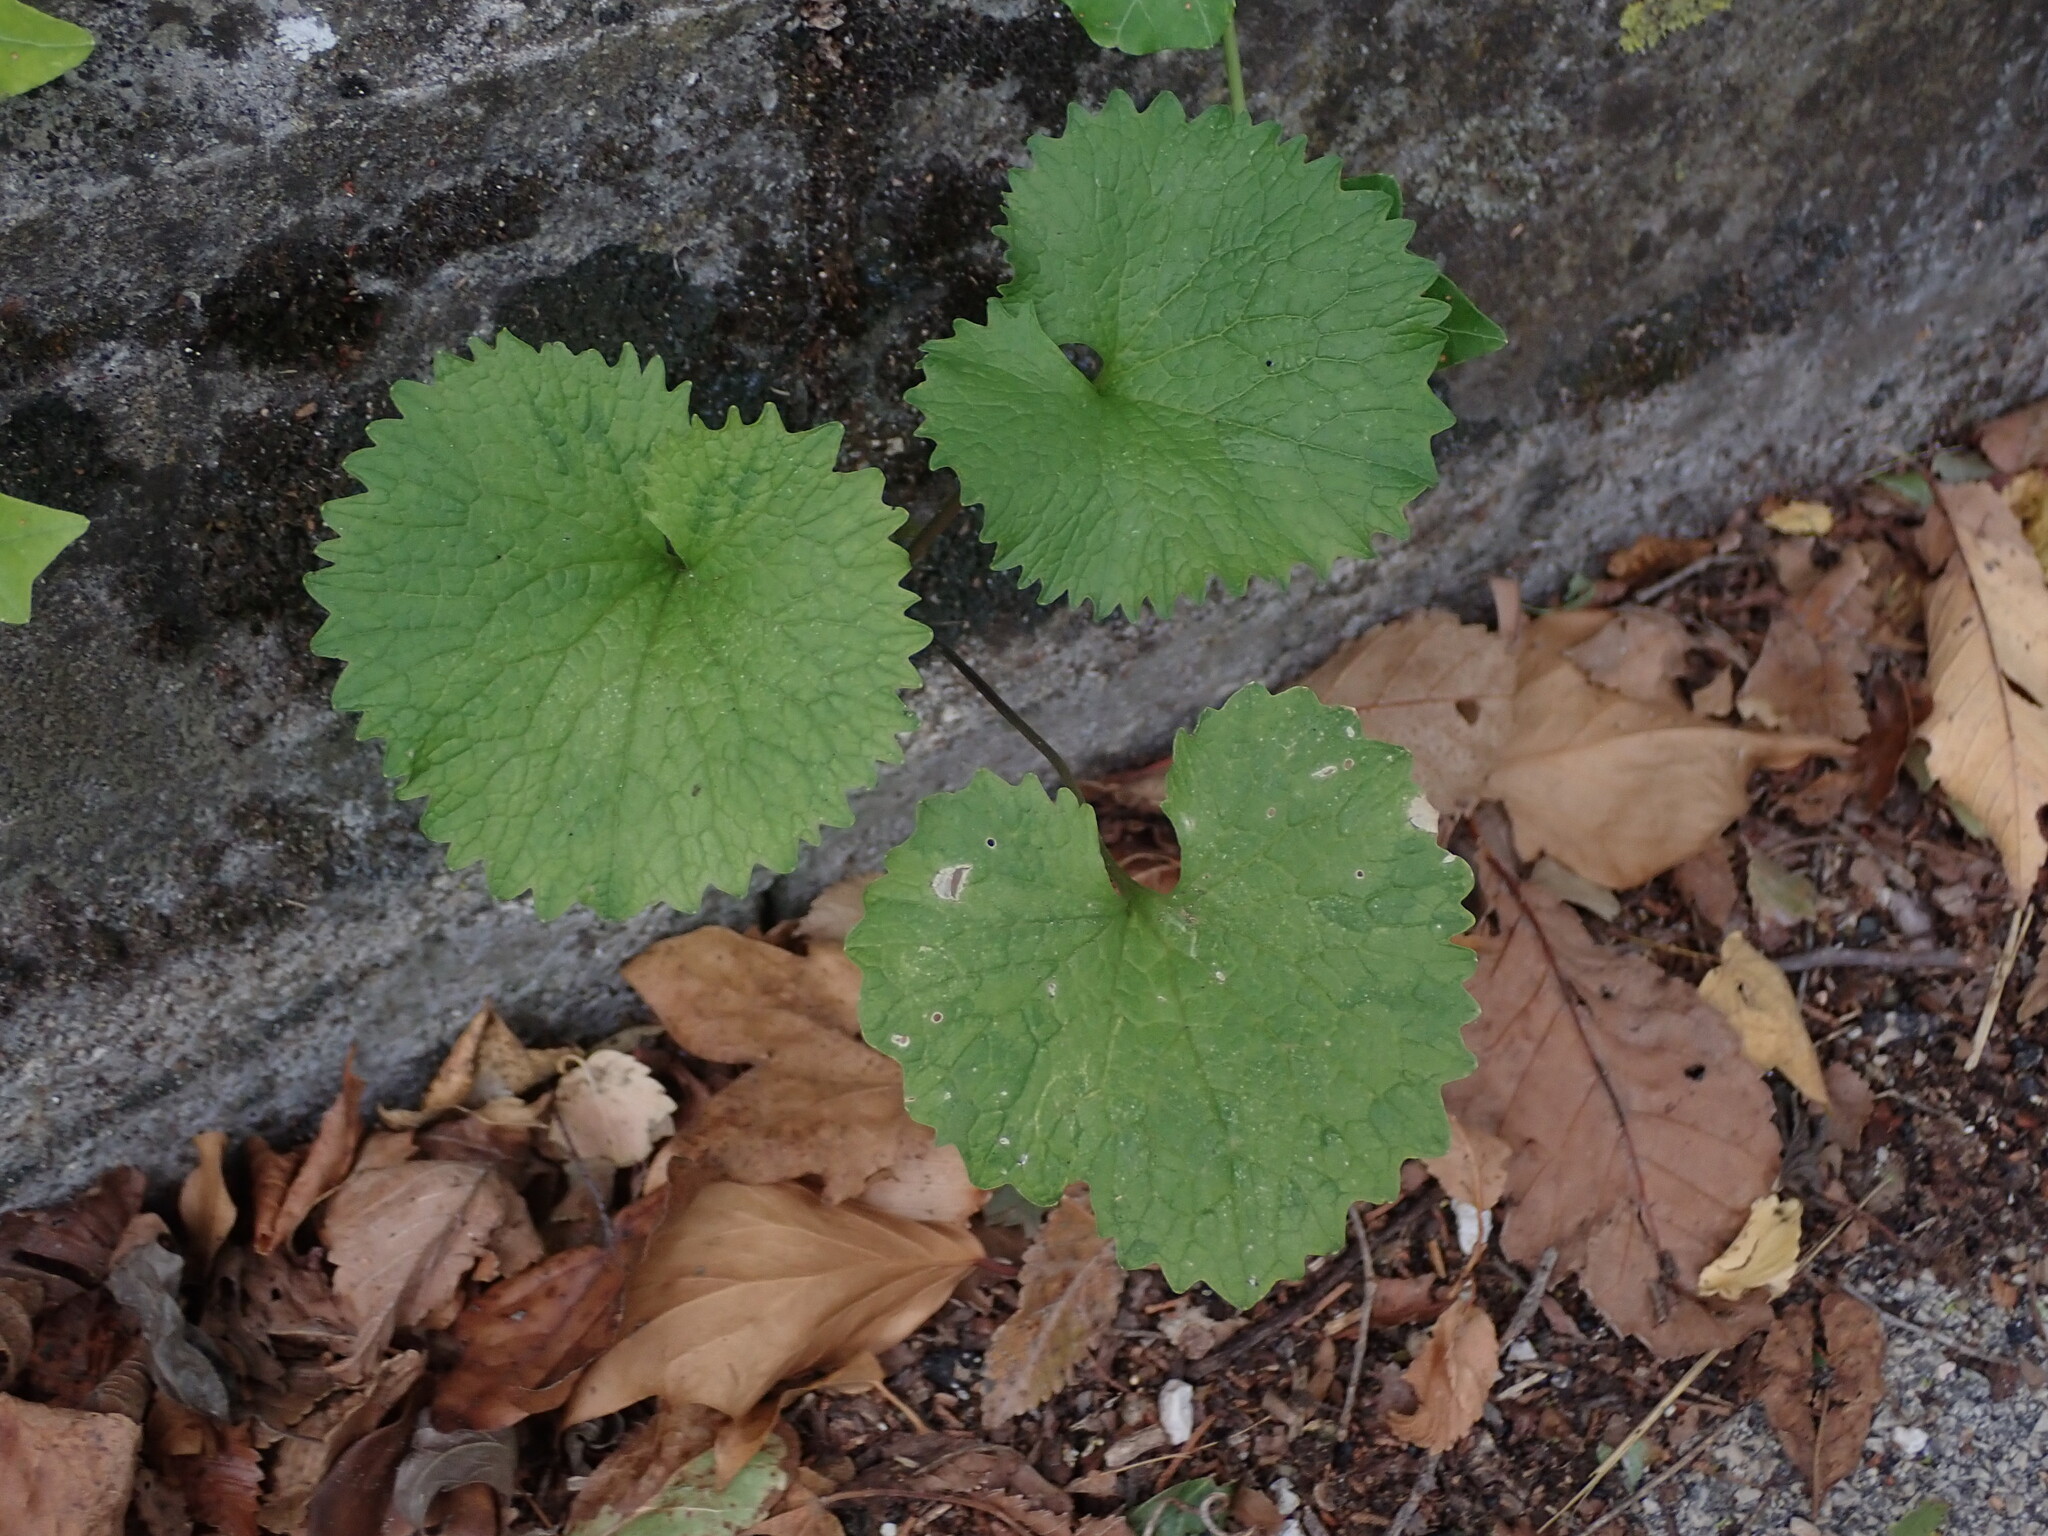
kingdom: Plantae
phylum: Tracheophyta
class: Magnoliopsida
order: Brassicales
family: Brassicaceae
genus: Alliaria
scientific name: Alliaria petiolata
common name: Garlic mustard
